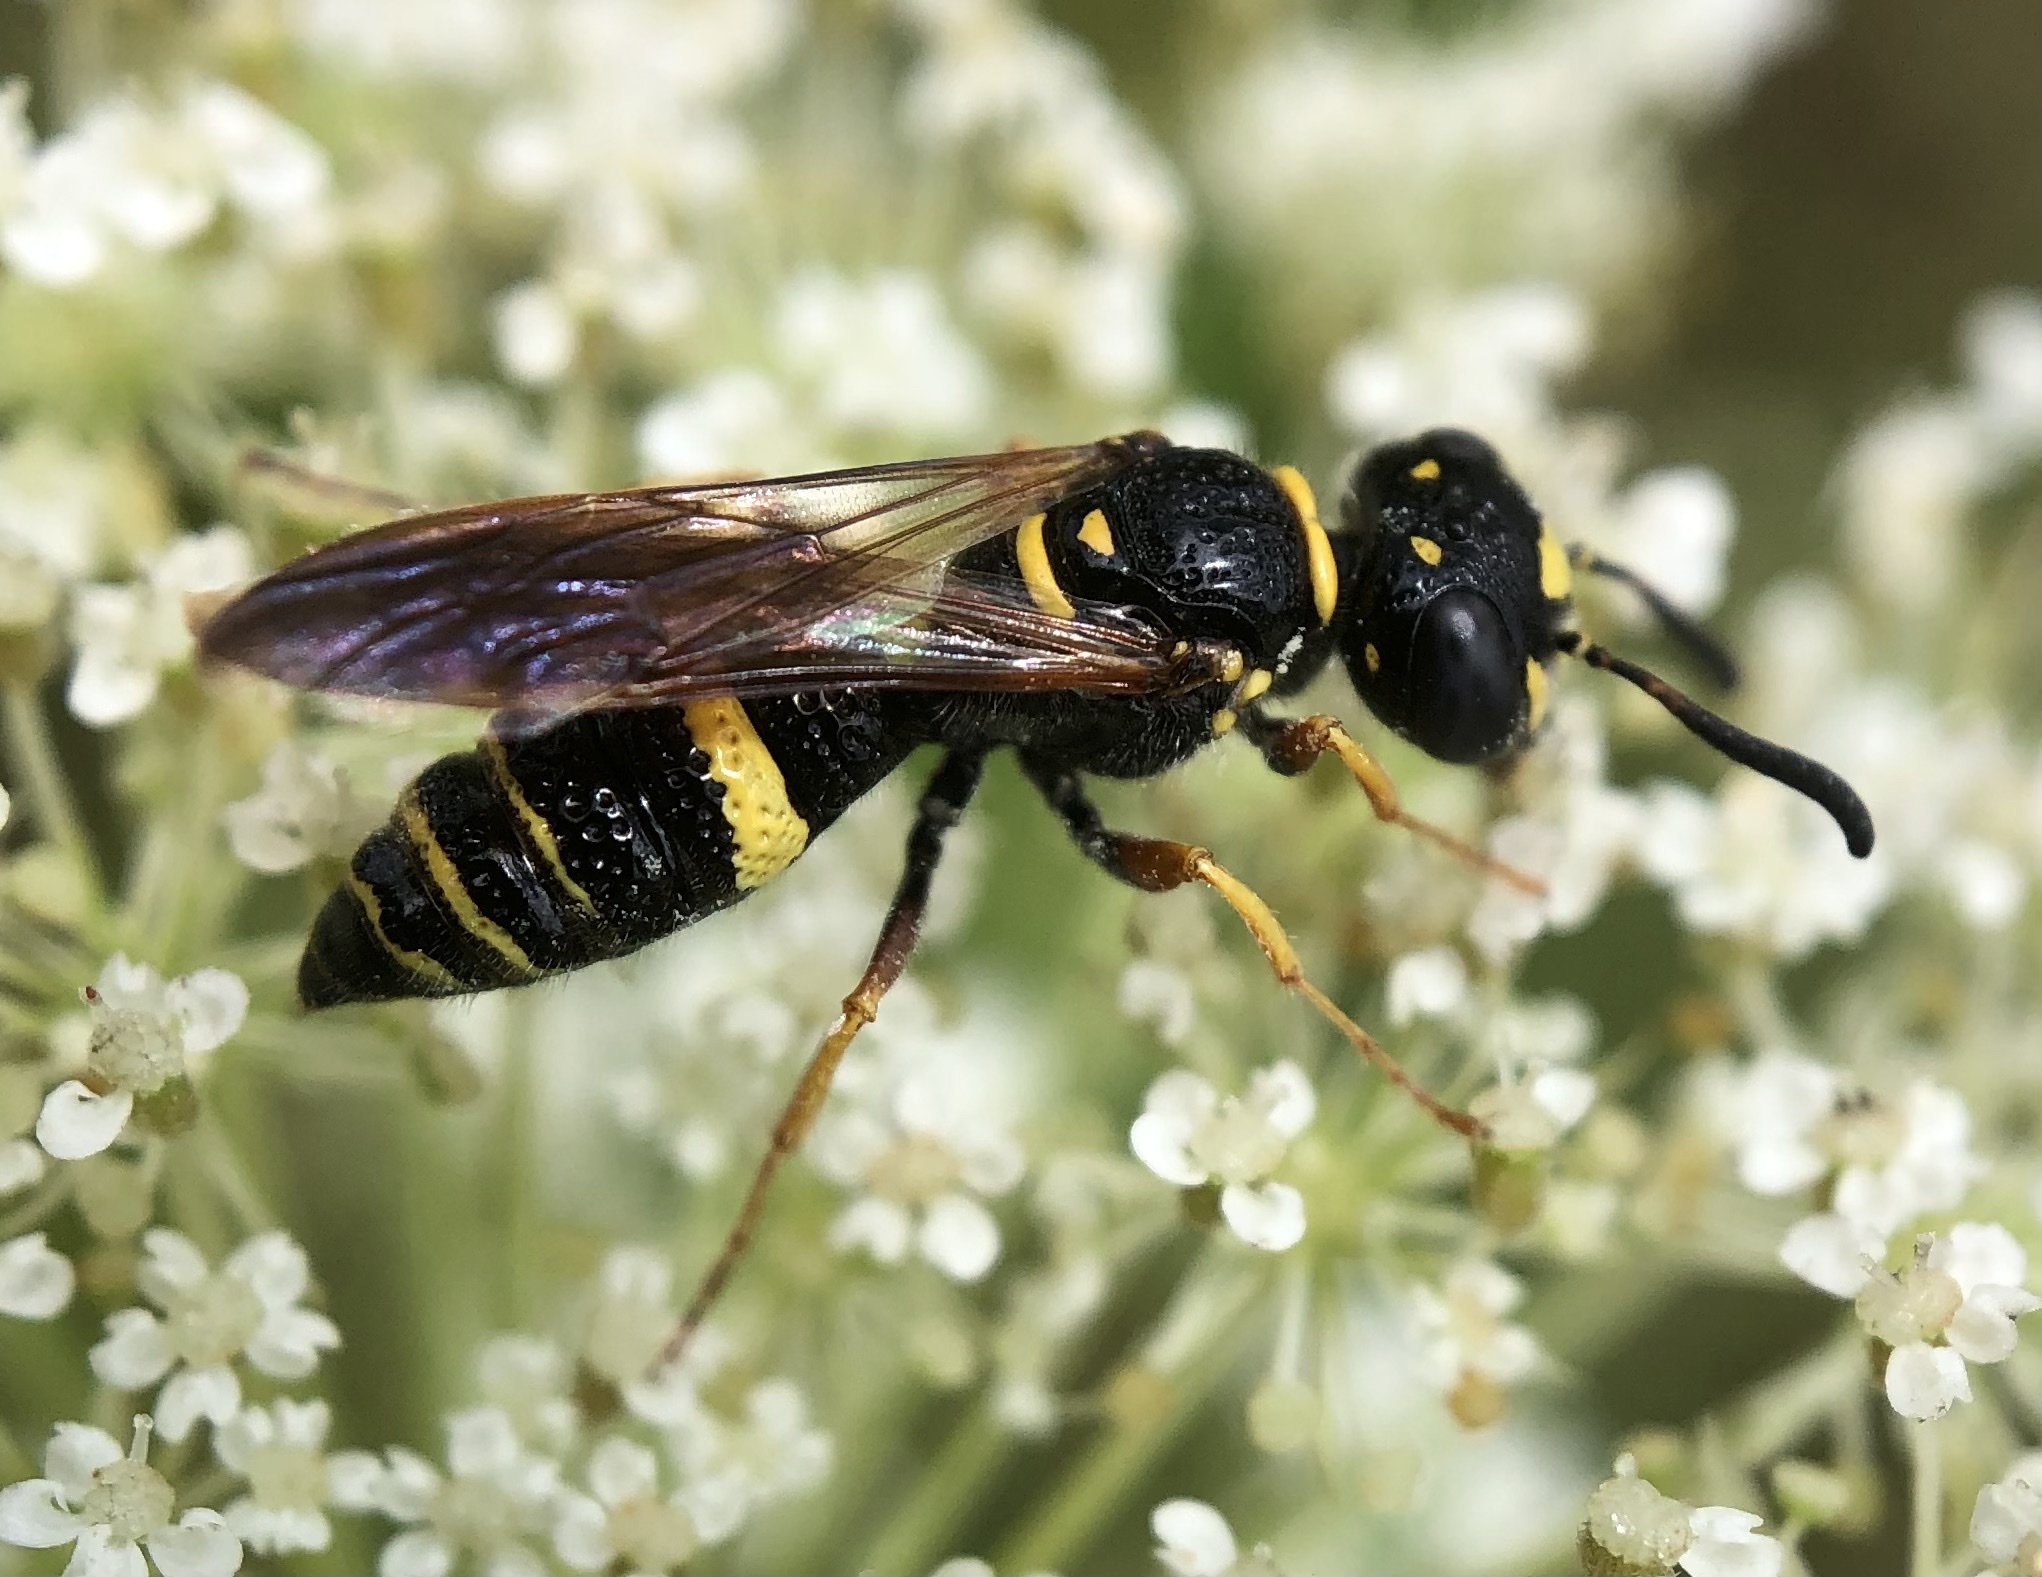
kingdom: Animalia
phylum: Arthropoda
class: Insecta
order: Hymenoptera
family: Crabronidae
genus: Philanthus
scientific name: Philanthus gibbosus
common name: Humped beewolf
